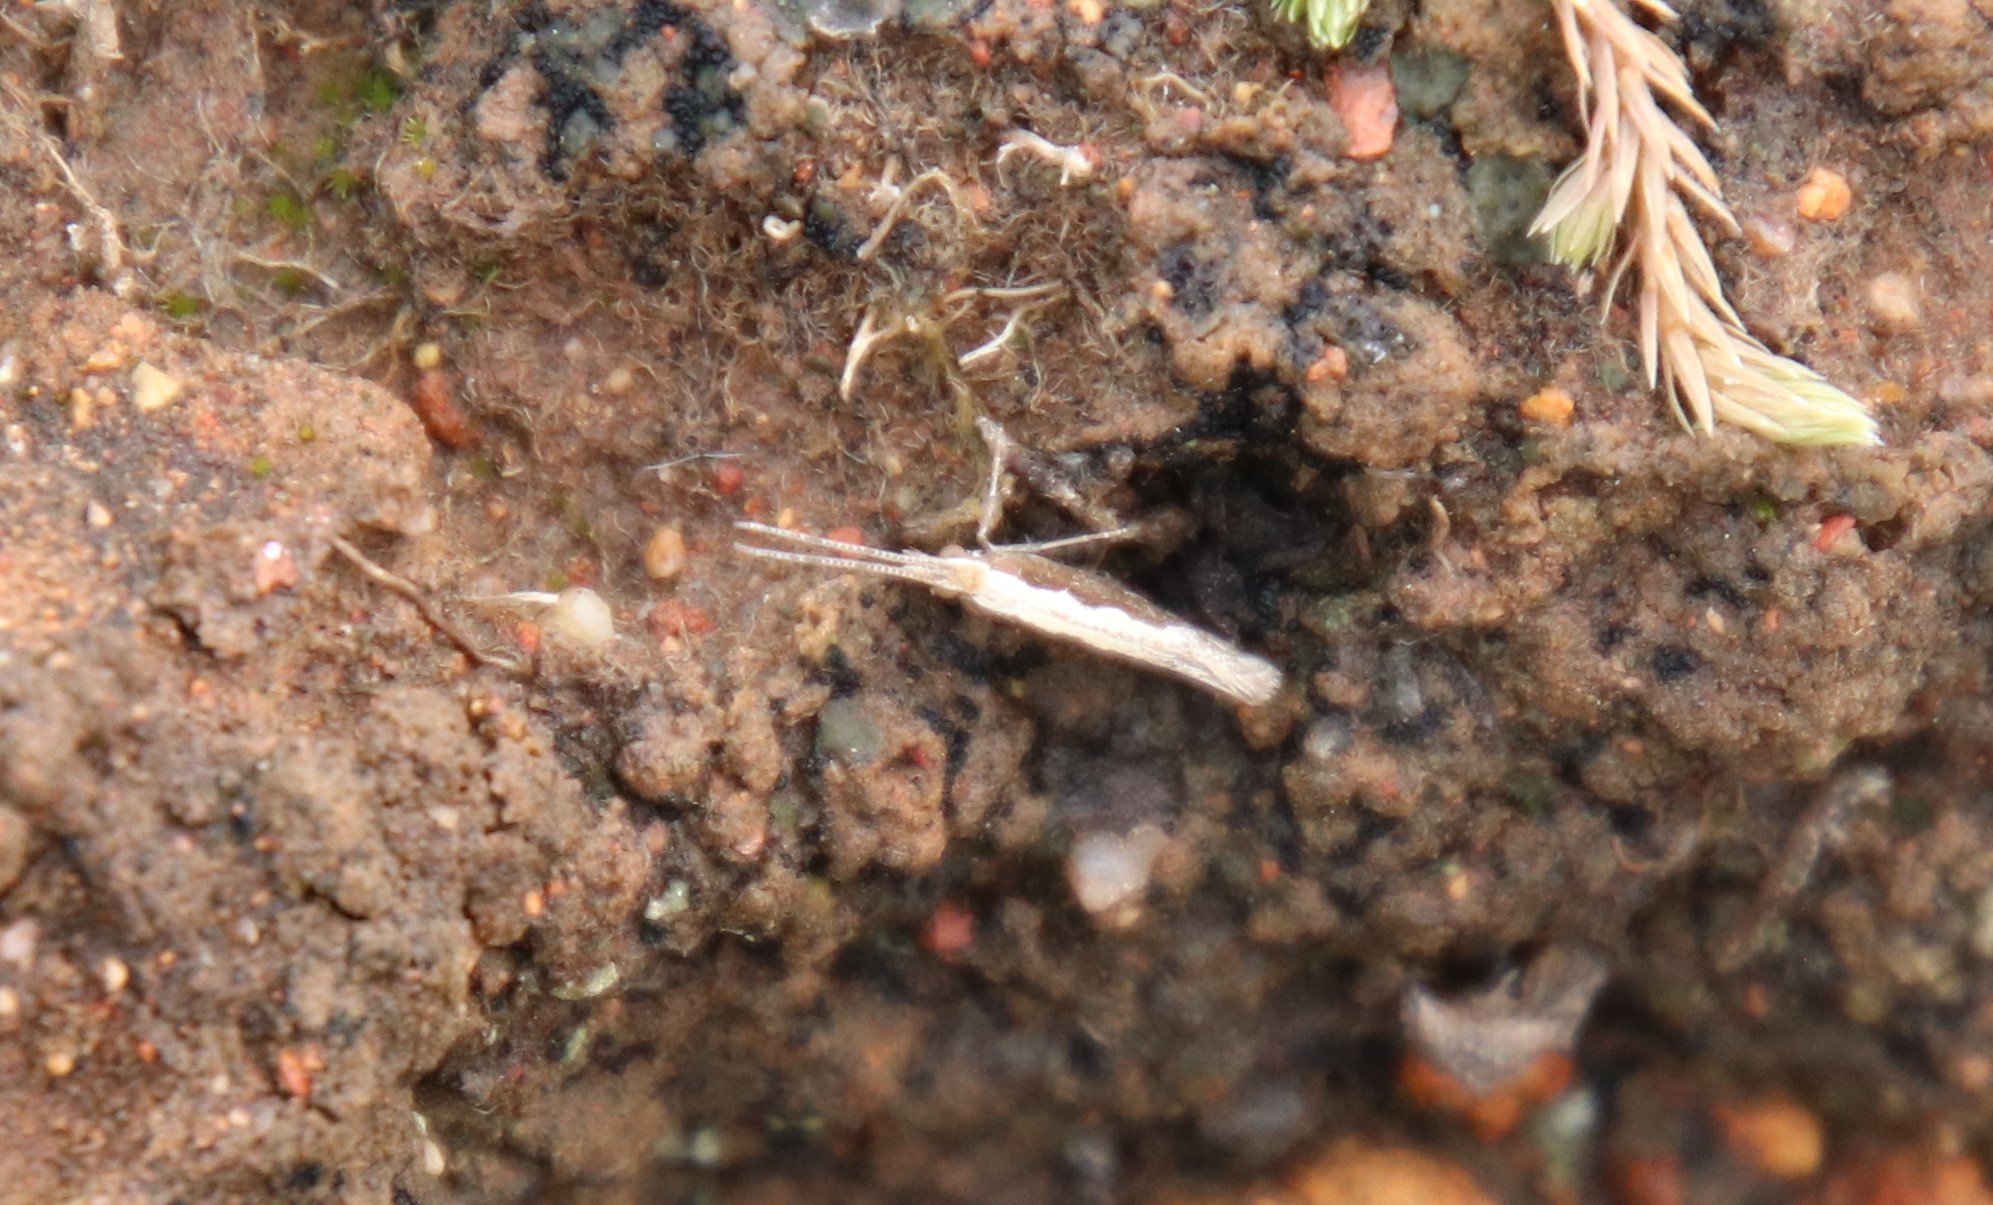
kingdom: Animalia
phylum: Arthropoda
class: Insecta
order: Lepidoptera
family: Plutellidae
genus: Plutella
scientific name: Plutella xylostella
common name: Diamond-back moth
